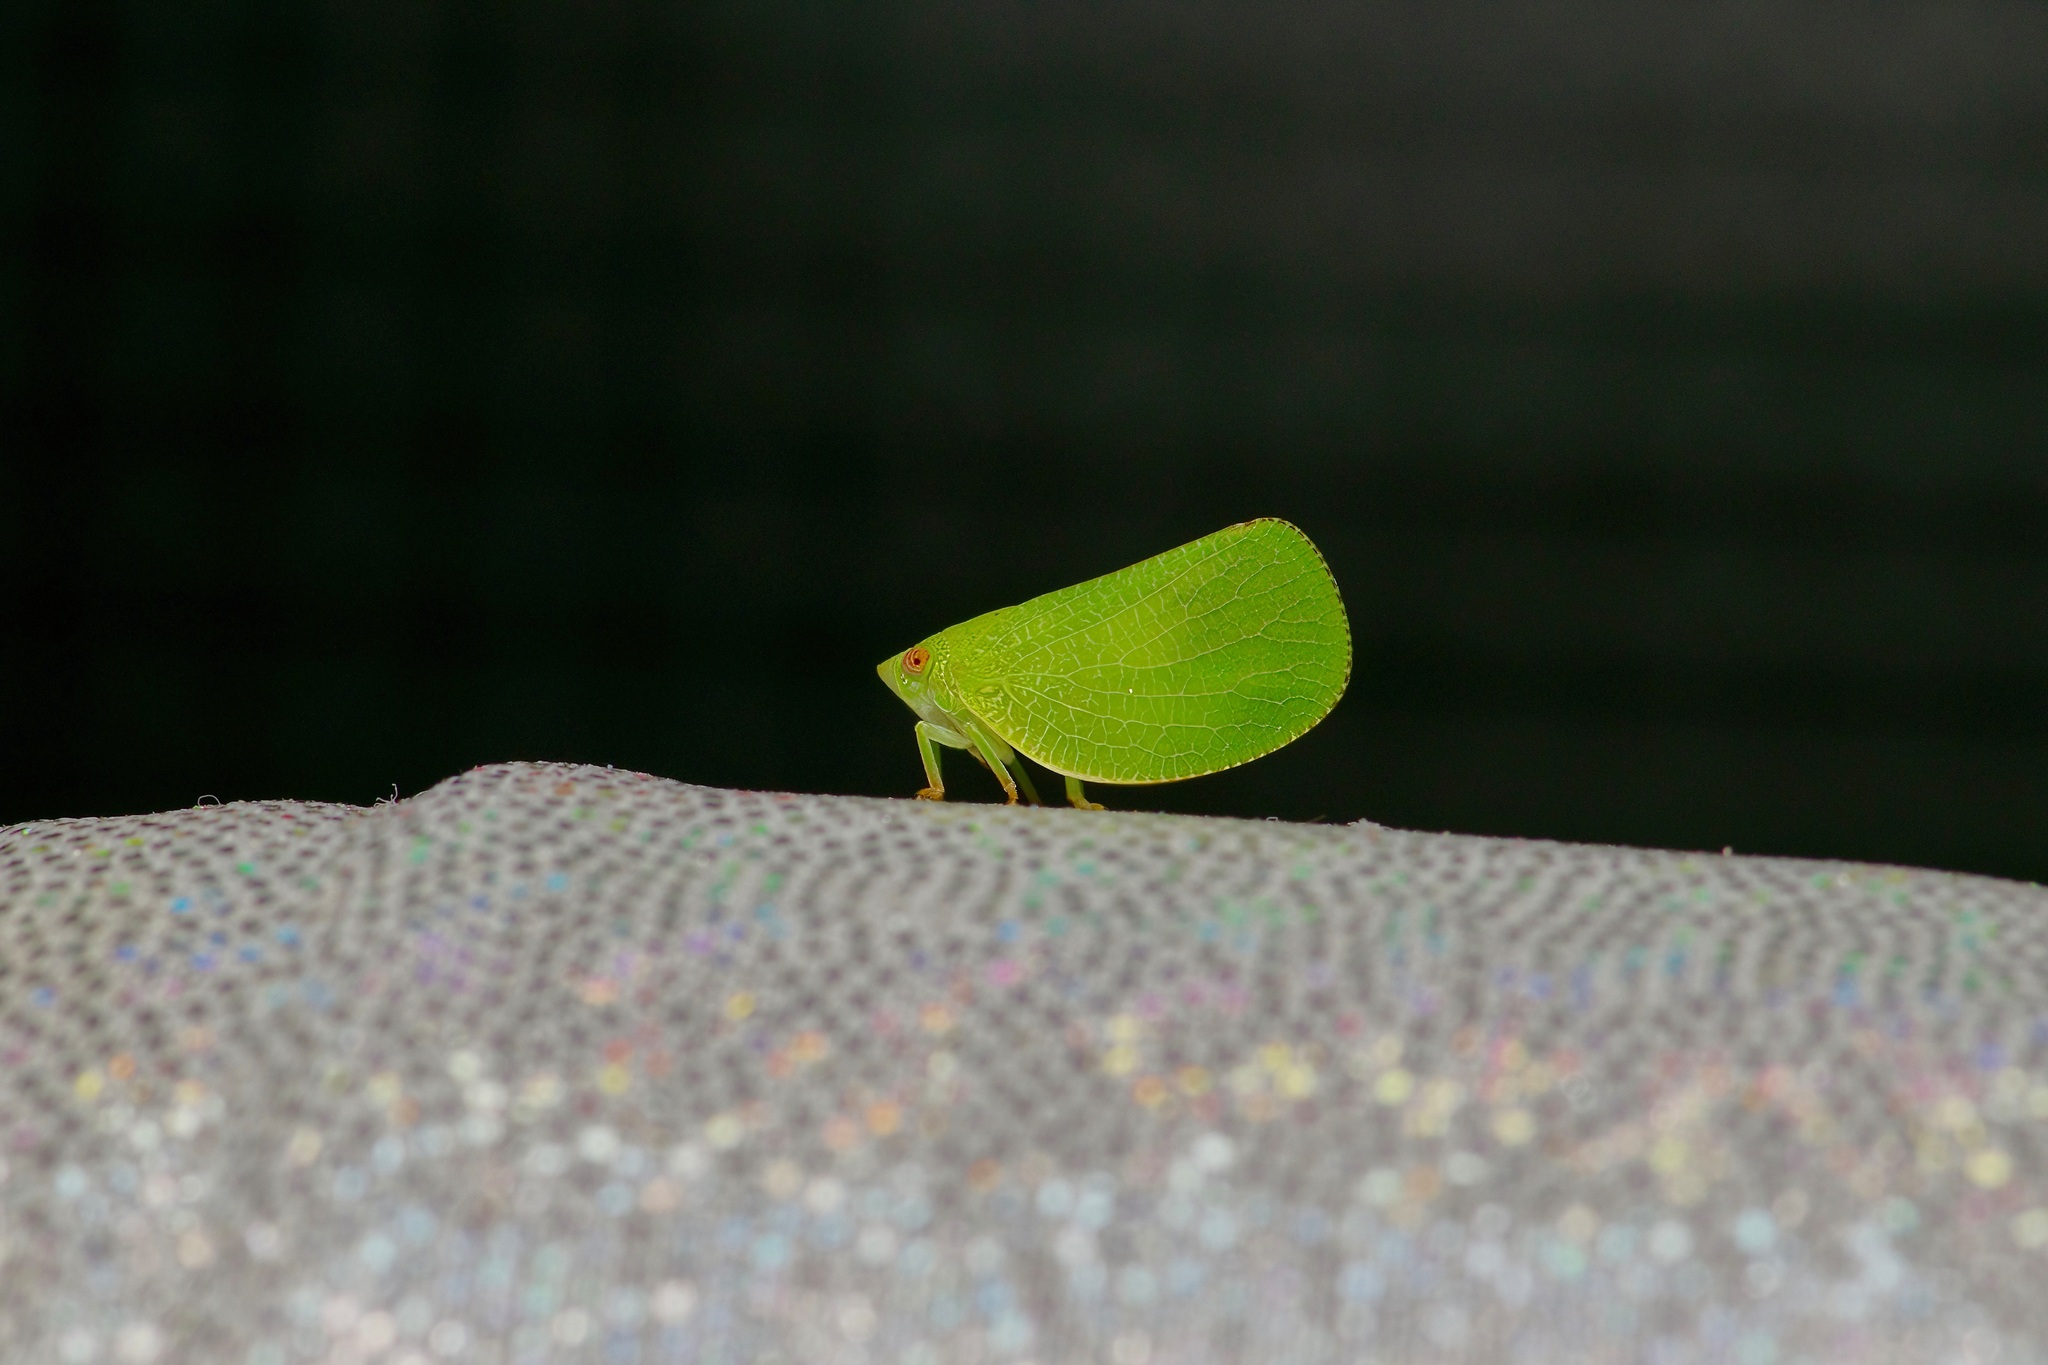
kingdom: Animalia
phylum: Arthropoda
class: Insecta
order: Hemiptera
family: Acanaloniidae
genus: Acanalonia
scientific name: Acanalonia conica
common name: Green cone-headed planthopper
